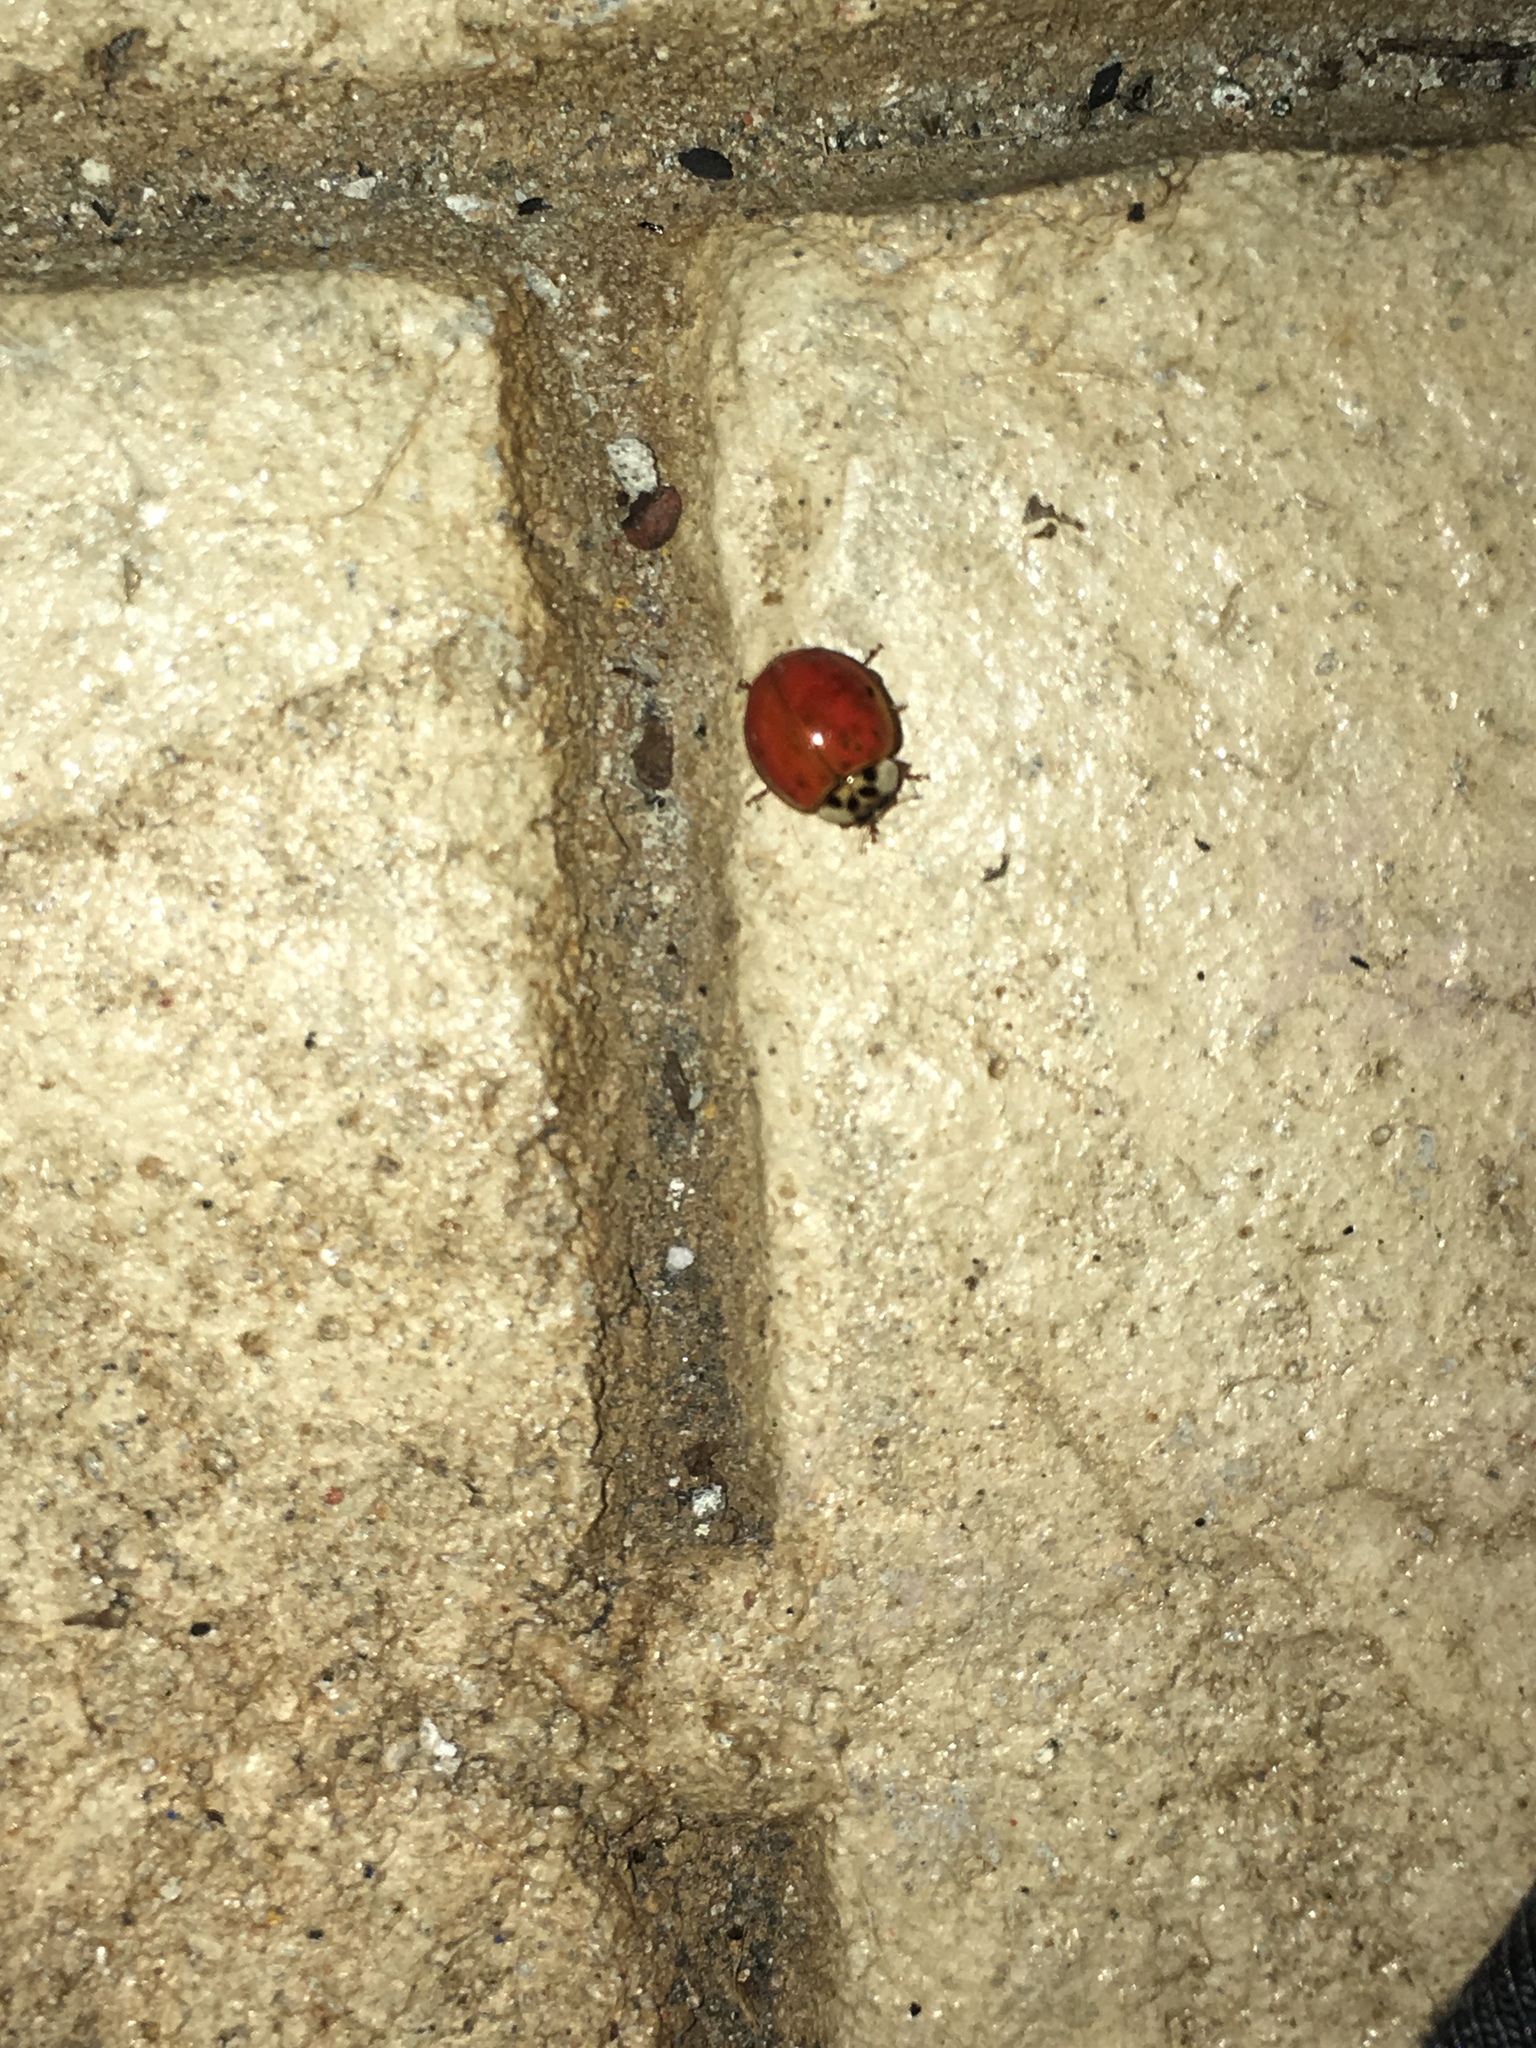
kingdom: Animalia
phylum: Arthropoda
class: Insecta
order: Coleoptera
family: Coccinellidae
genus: Harmonia
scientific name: Harmonia axyridis
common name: Harlequin ladybird
